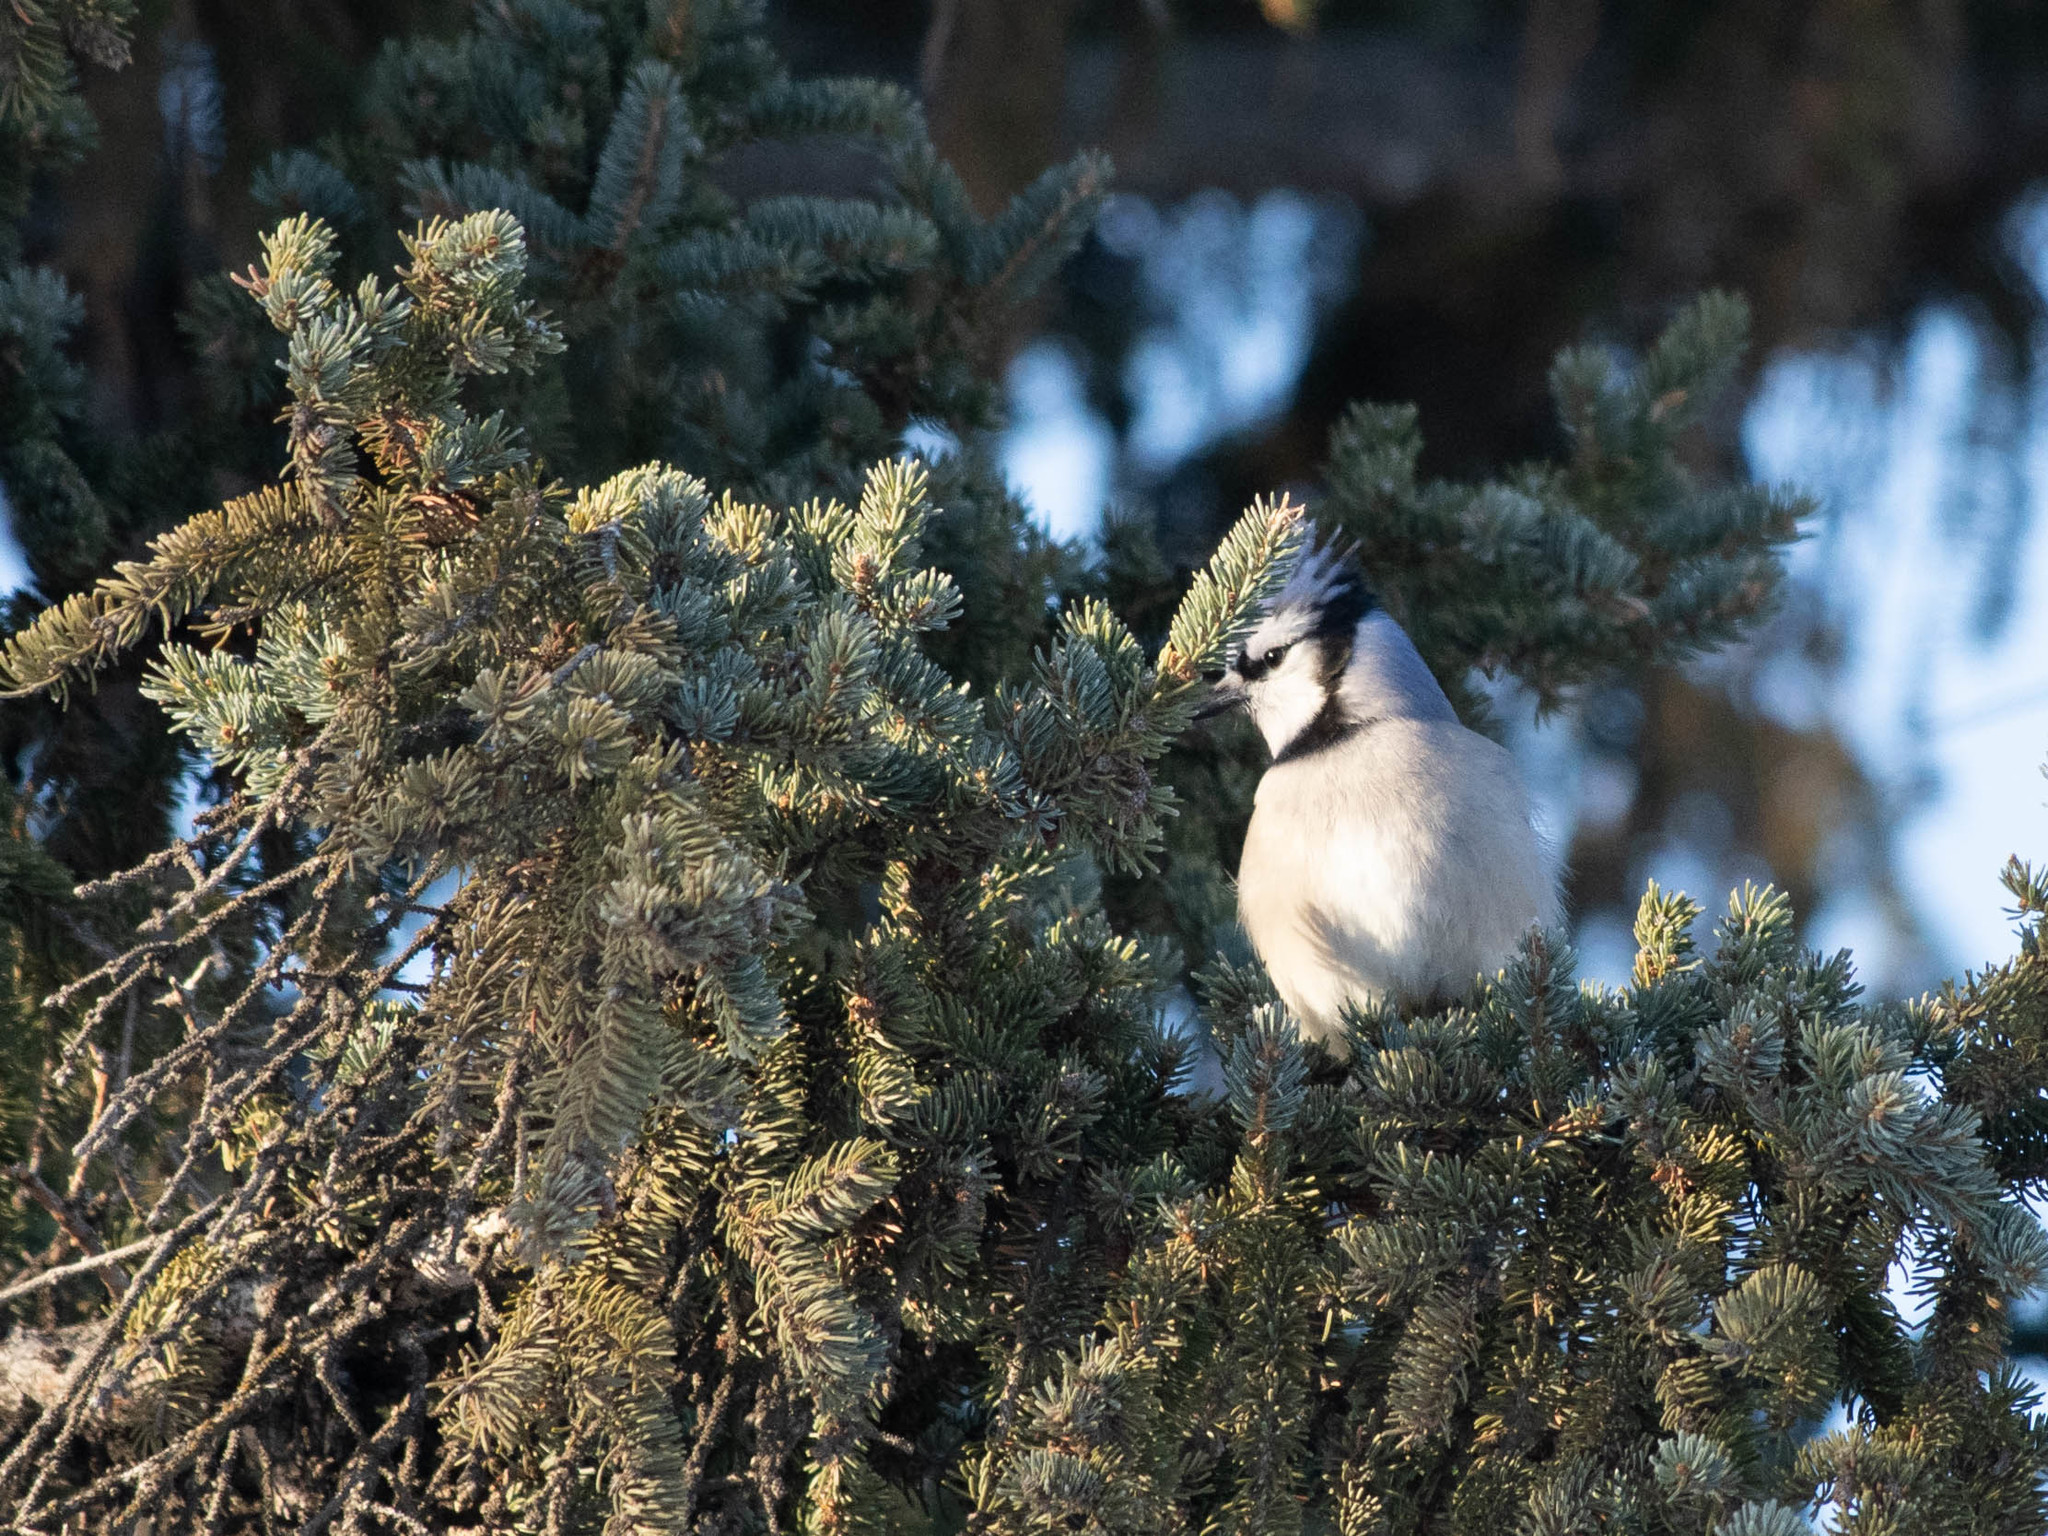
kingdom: Animalia
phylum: Chordata
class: Aves
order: Passeriformes
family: Corvidae
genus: Cyanocitta
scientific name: Cyanocitta cristata
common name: Blue jay
